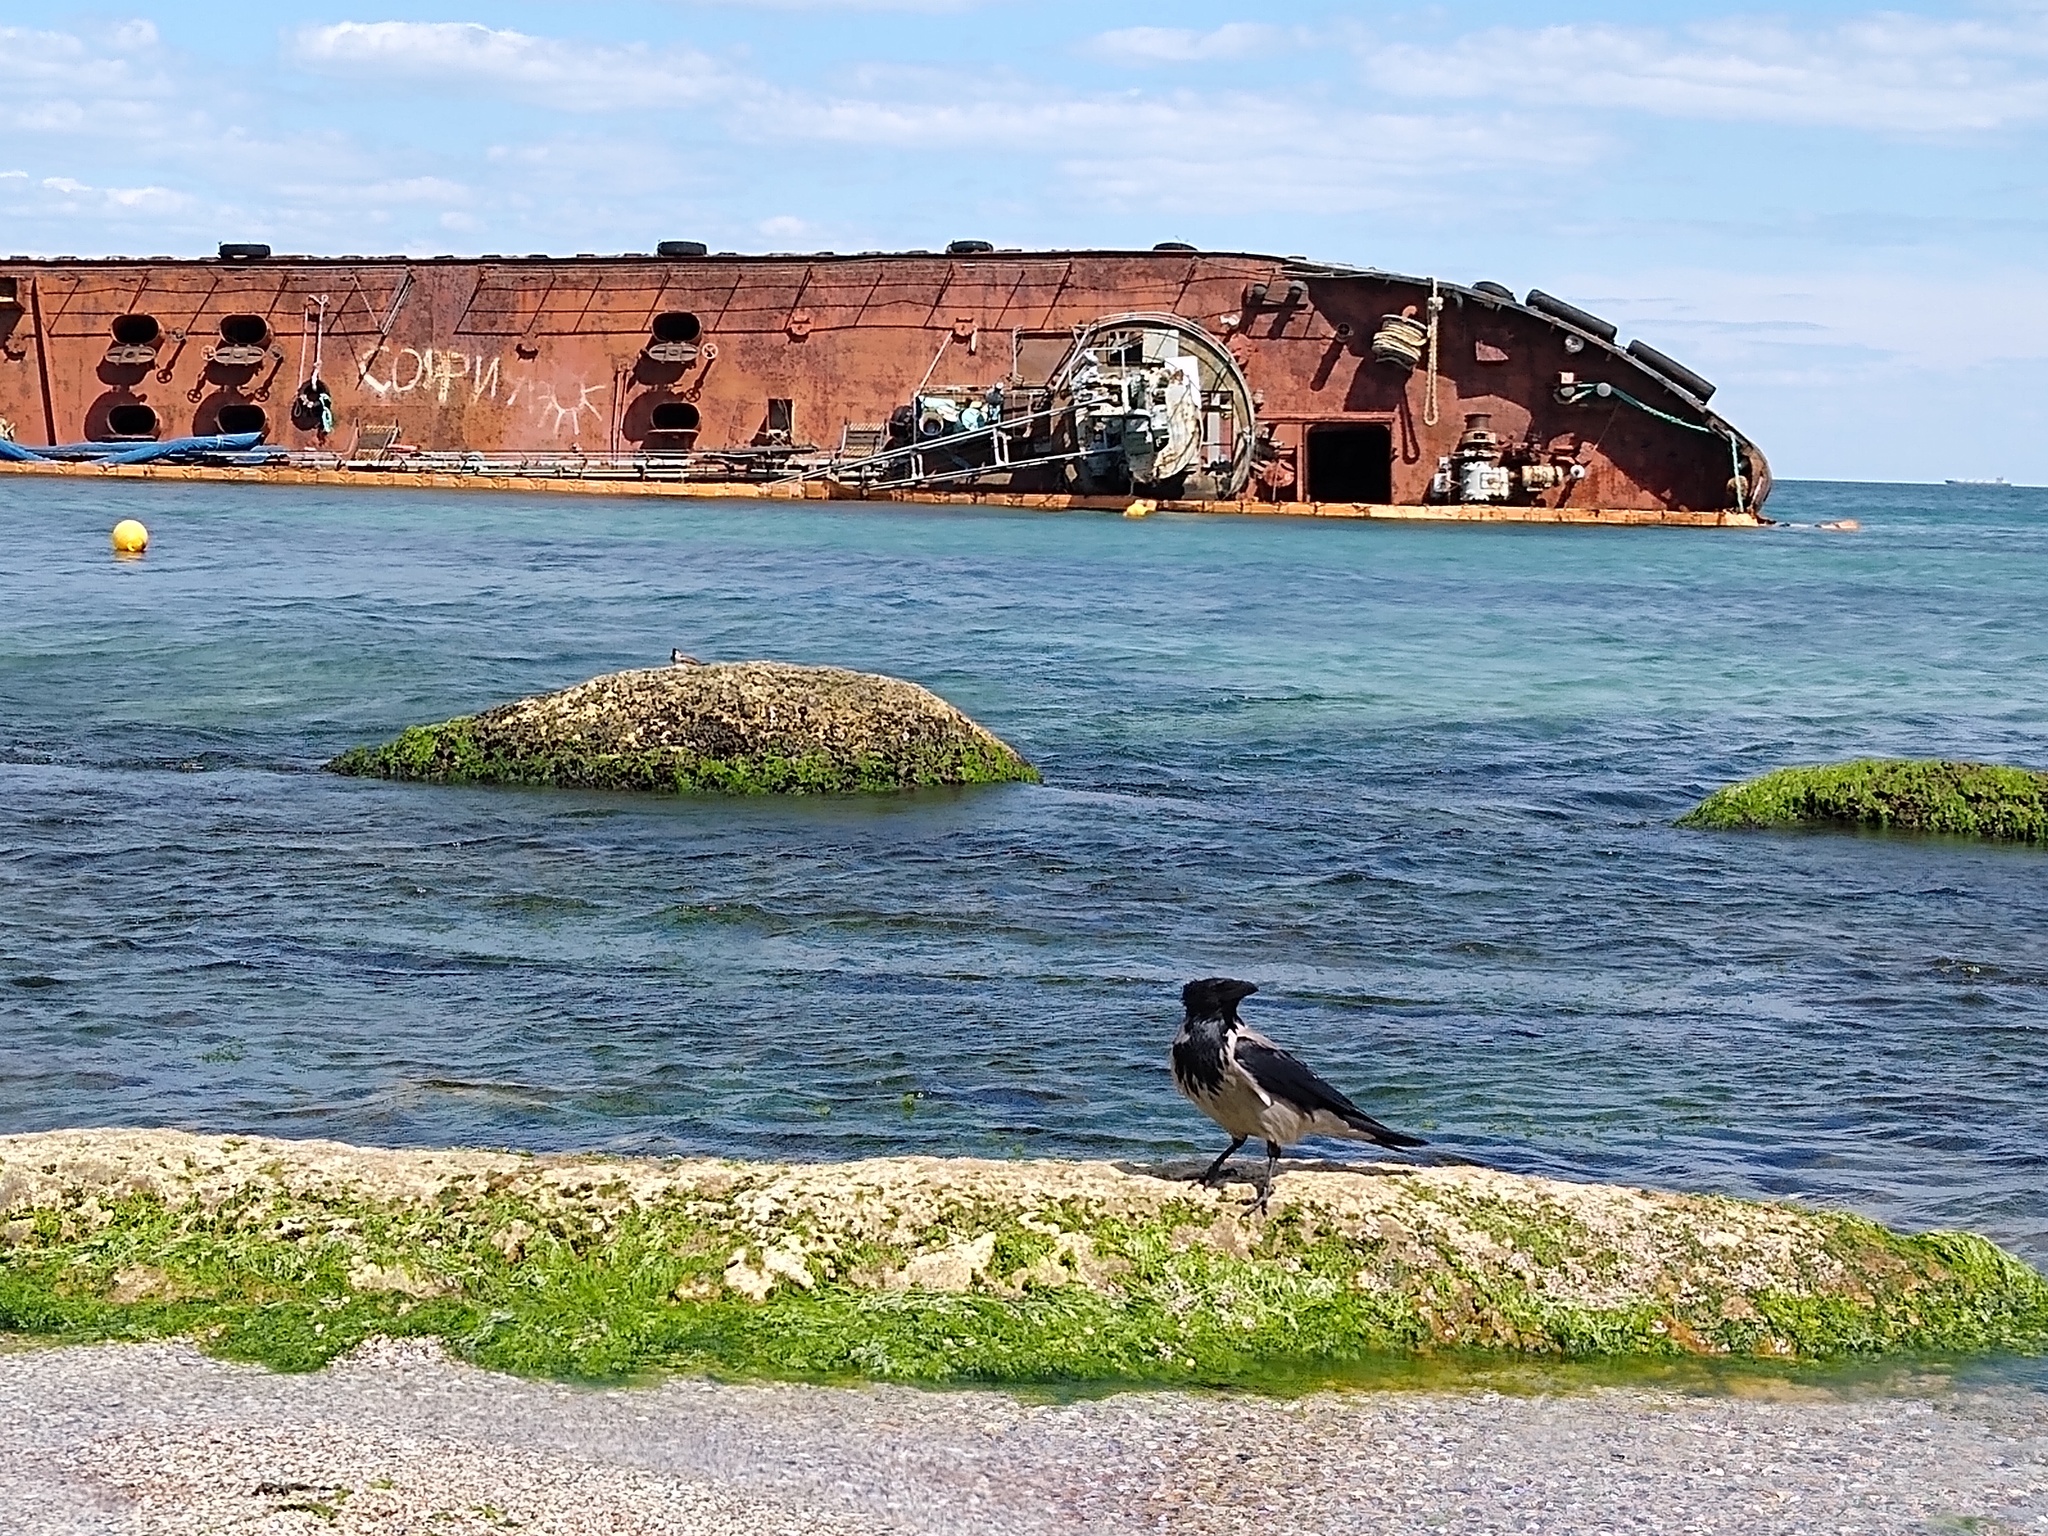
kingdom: Animalia
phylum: Chordata
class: Aves
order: Passeriformes
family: Corvidae
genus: Corvus
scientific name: Corvus cornix
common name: Hooded crow
